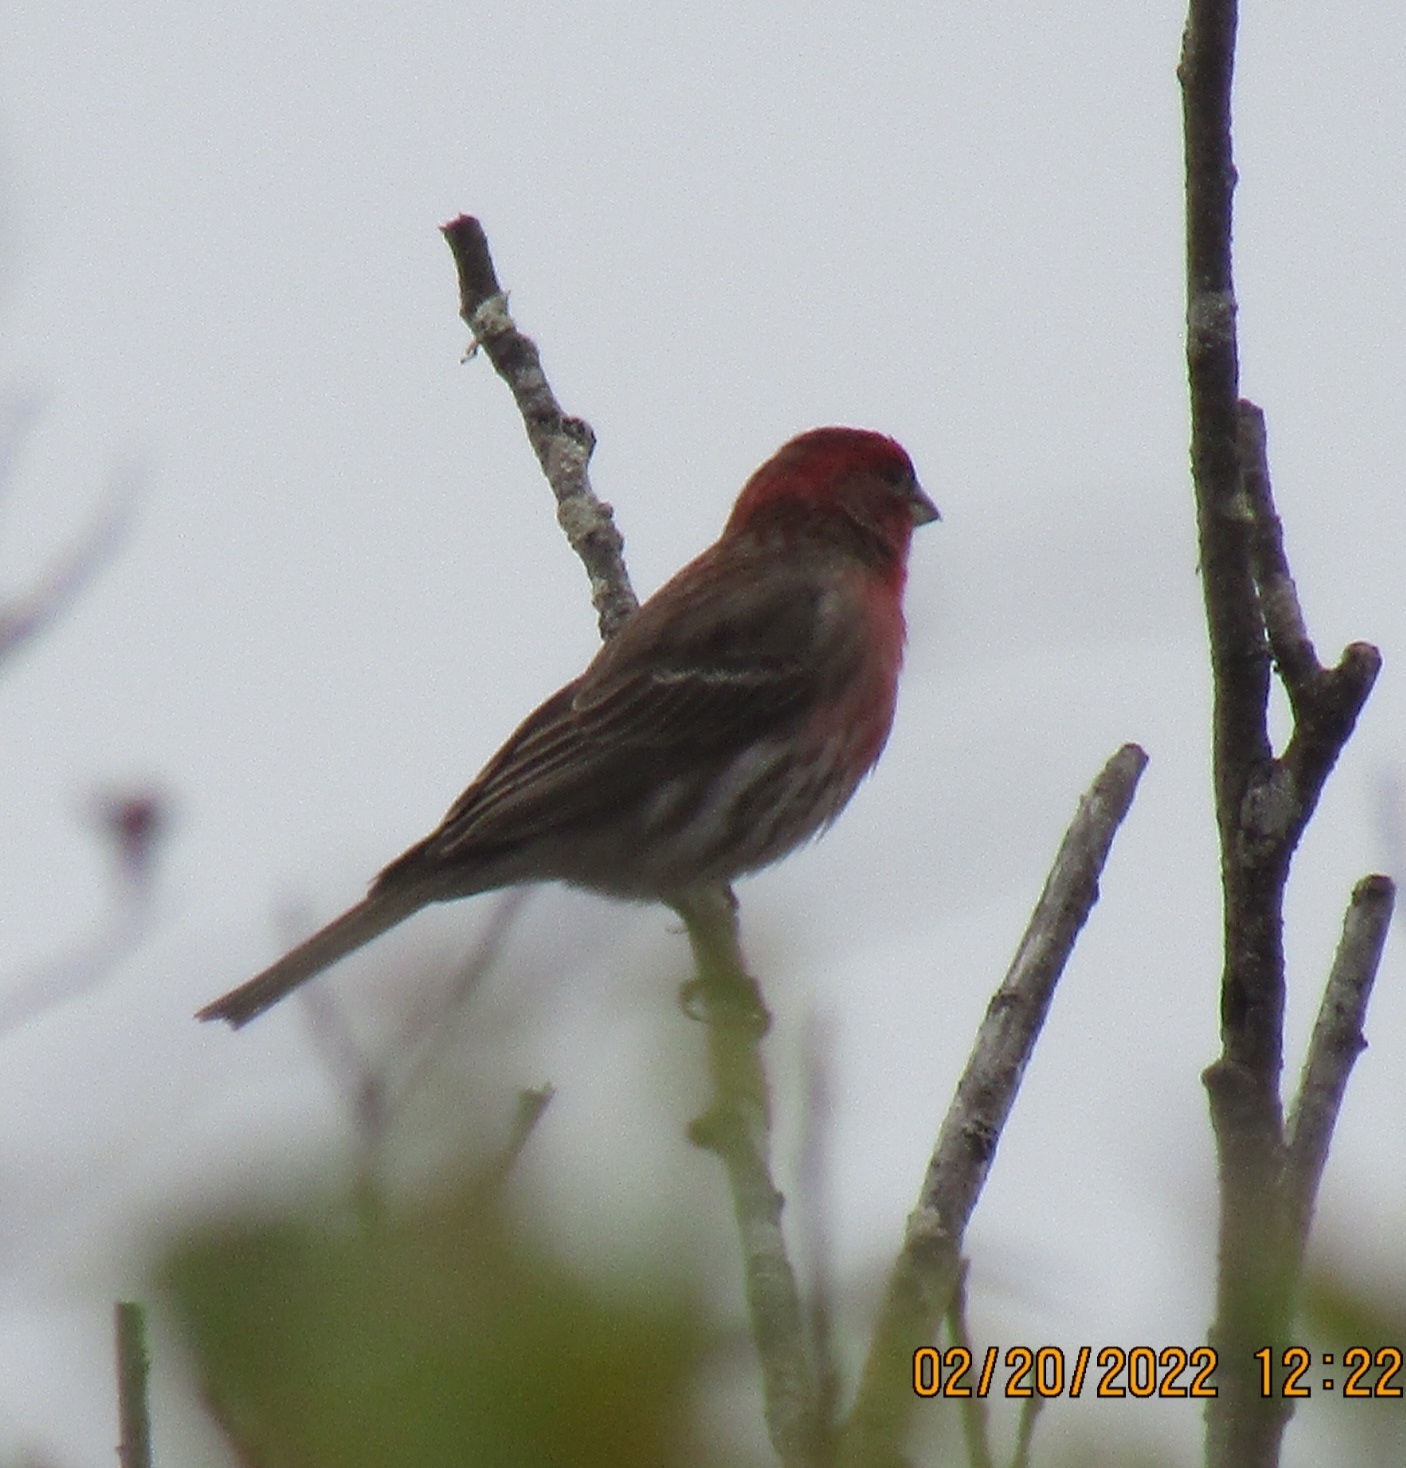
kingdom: Animalia
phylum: Chordata
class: Aves
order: Passeriformes
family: Fringillidae
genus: Haemorhous
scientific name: Haemorhous mexicanus
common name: House finch
